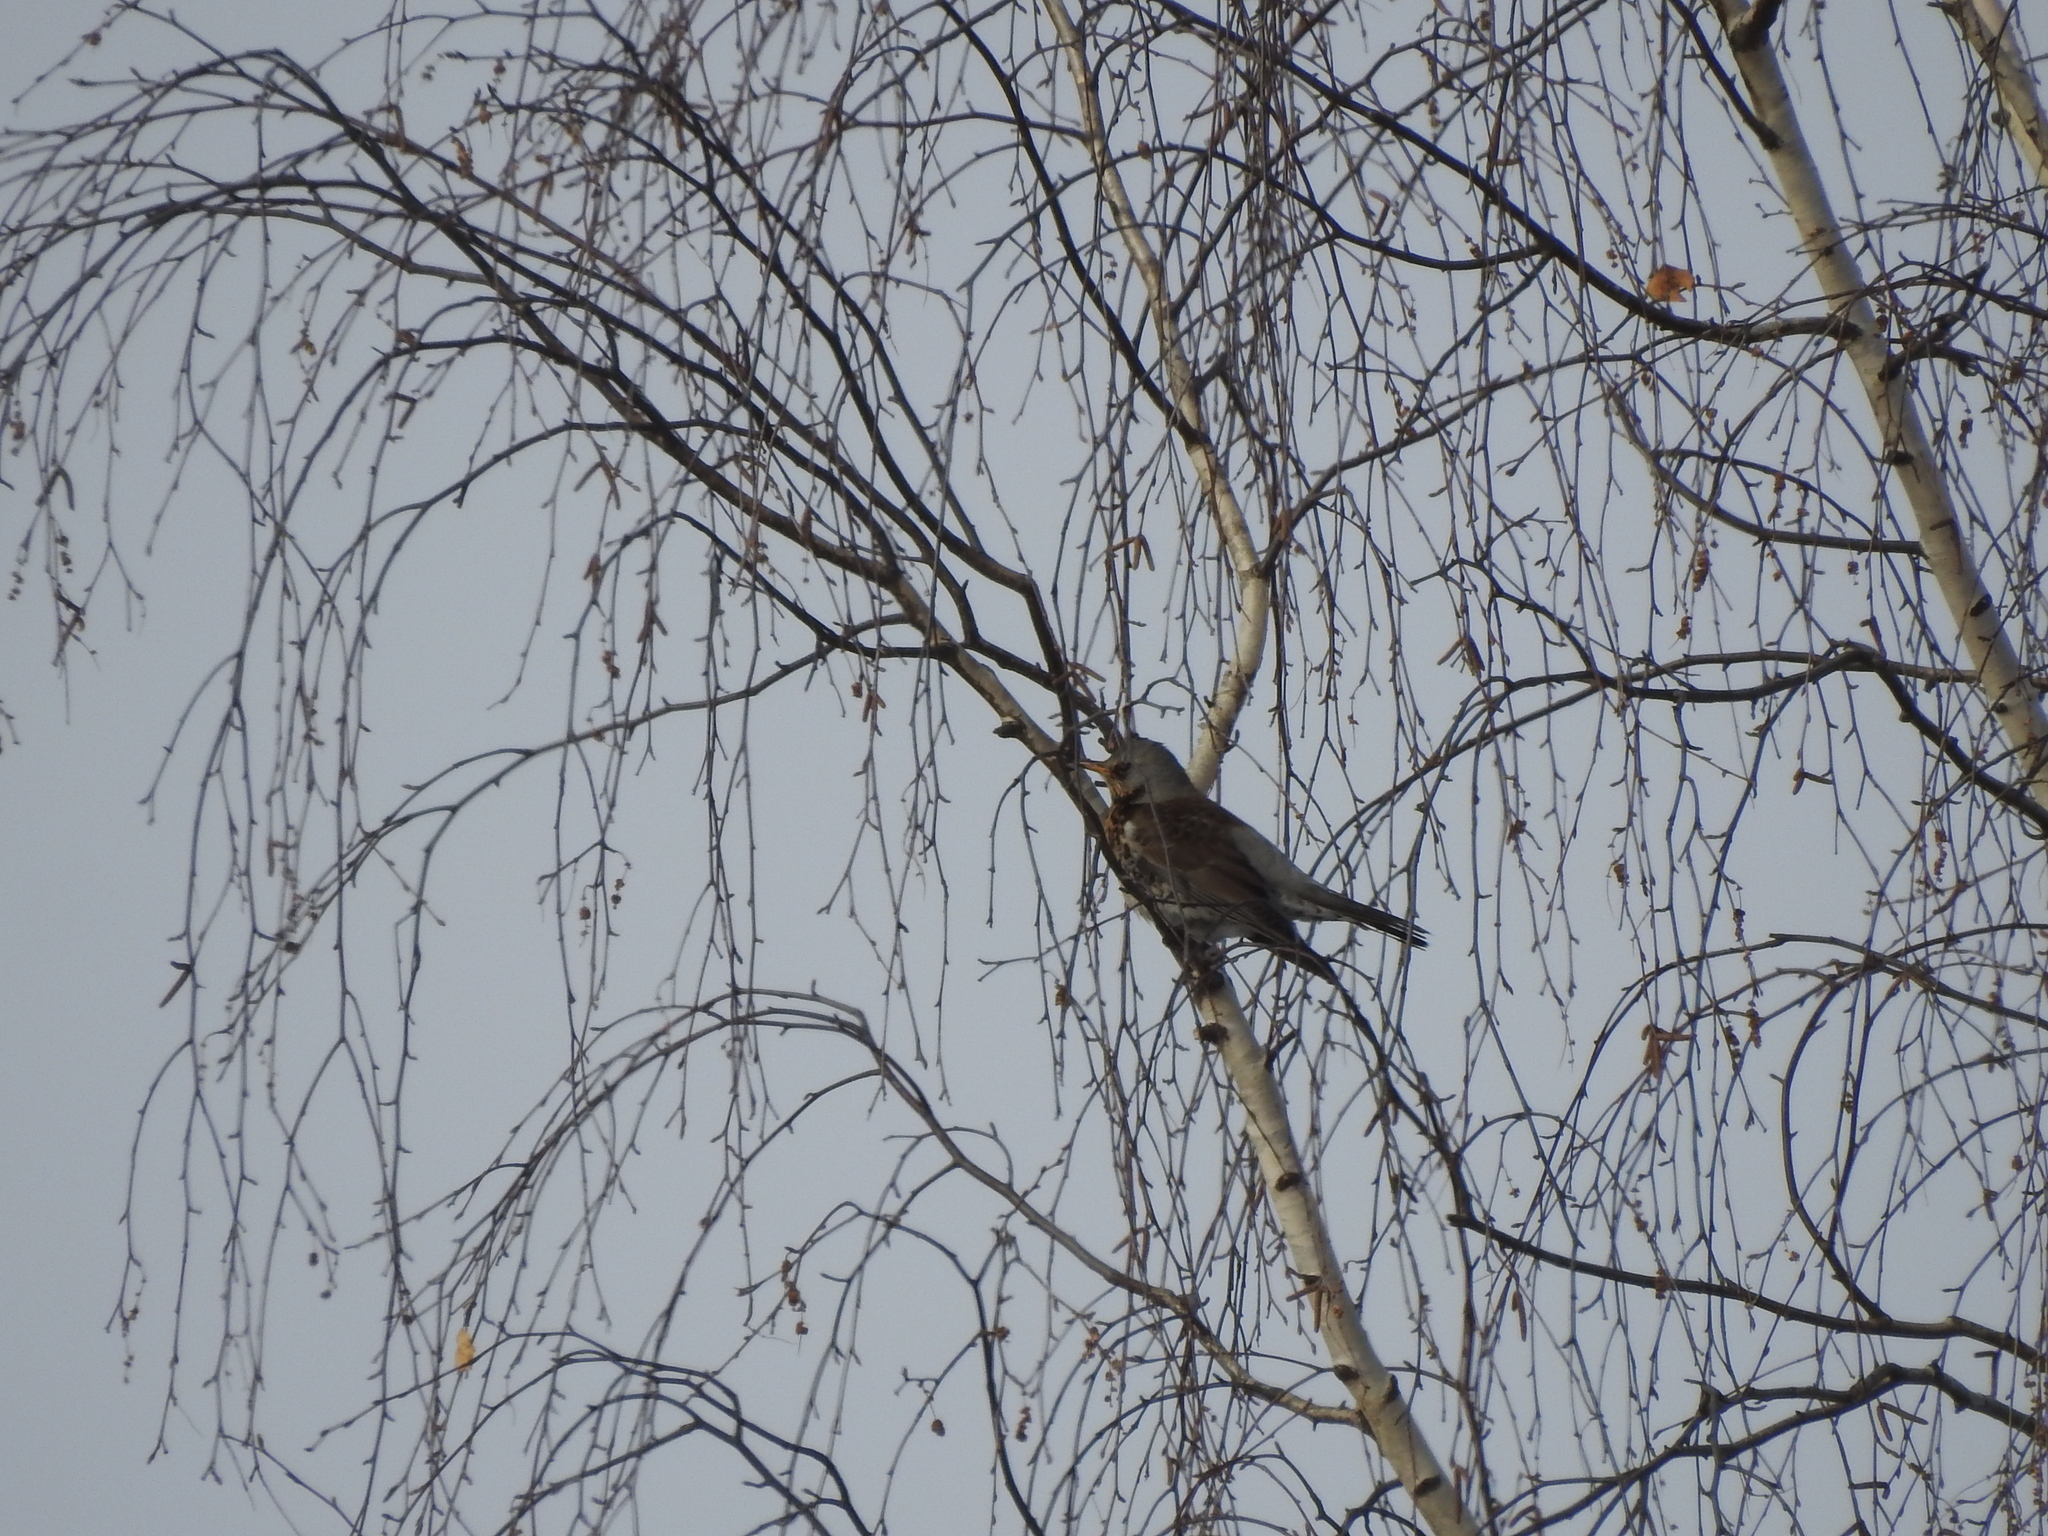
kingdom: Animalia
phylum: Chordata
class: Aves
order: Passeriformes
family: Turdidae
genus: Turdus
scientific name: Turdus pilaris
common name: Fieldfare
